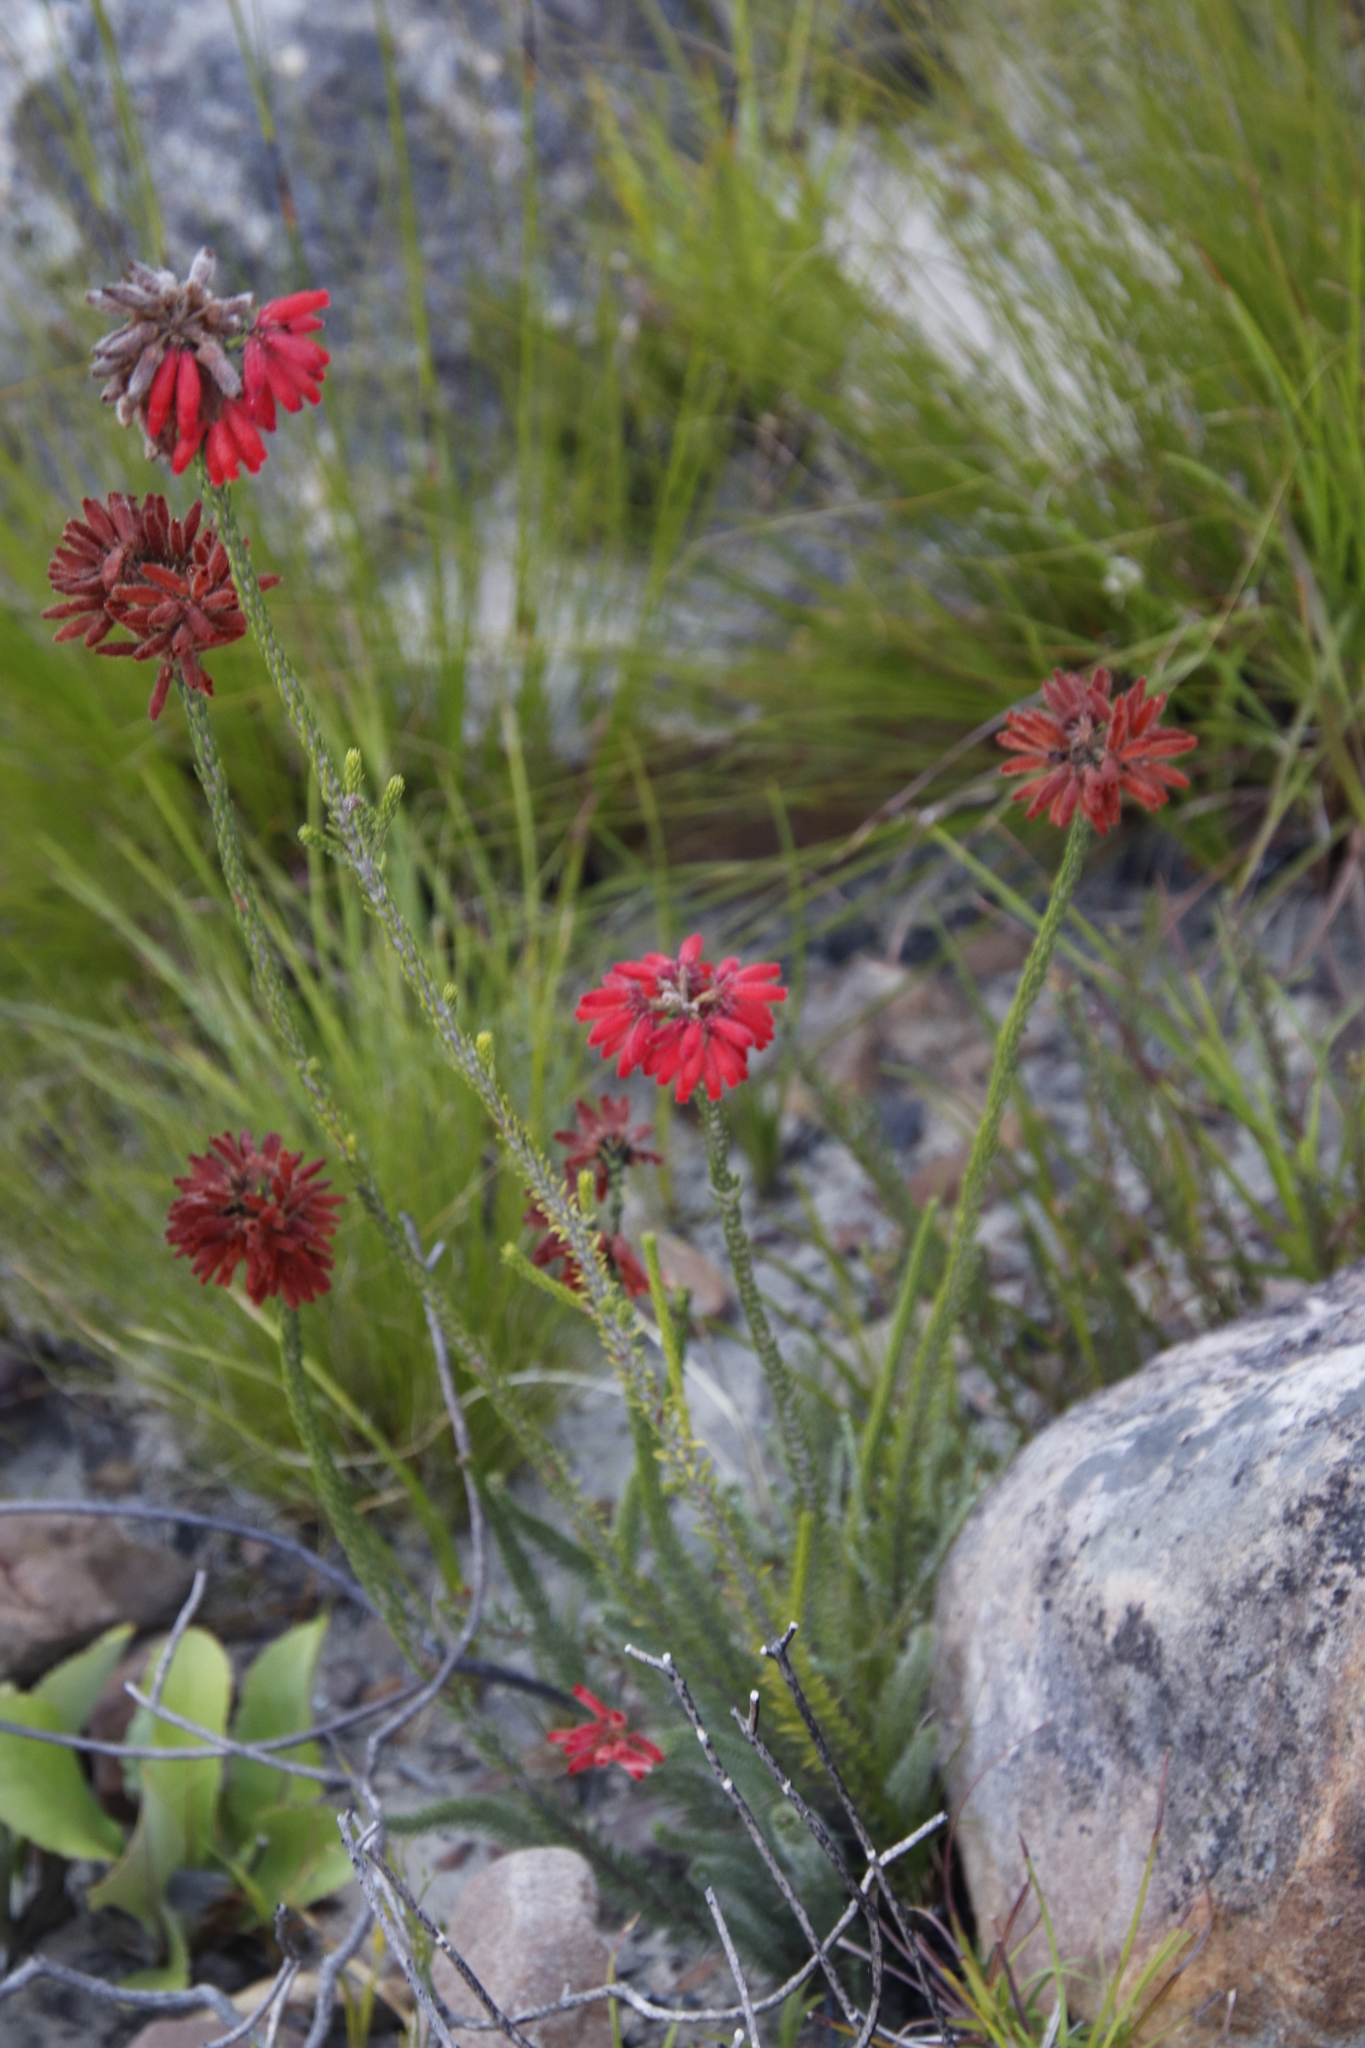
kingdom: Plantae
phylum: Tracheophyta
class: Magnoliopsida
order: Ericales
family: Ericaceae
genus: Erica
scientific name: Erica cerinthoides
